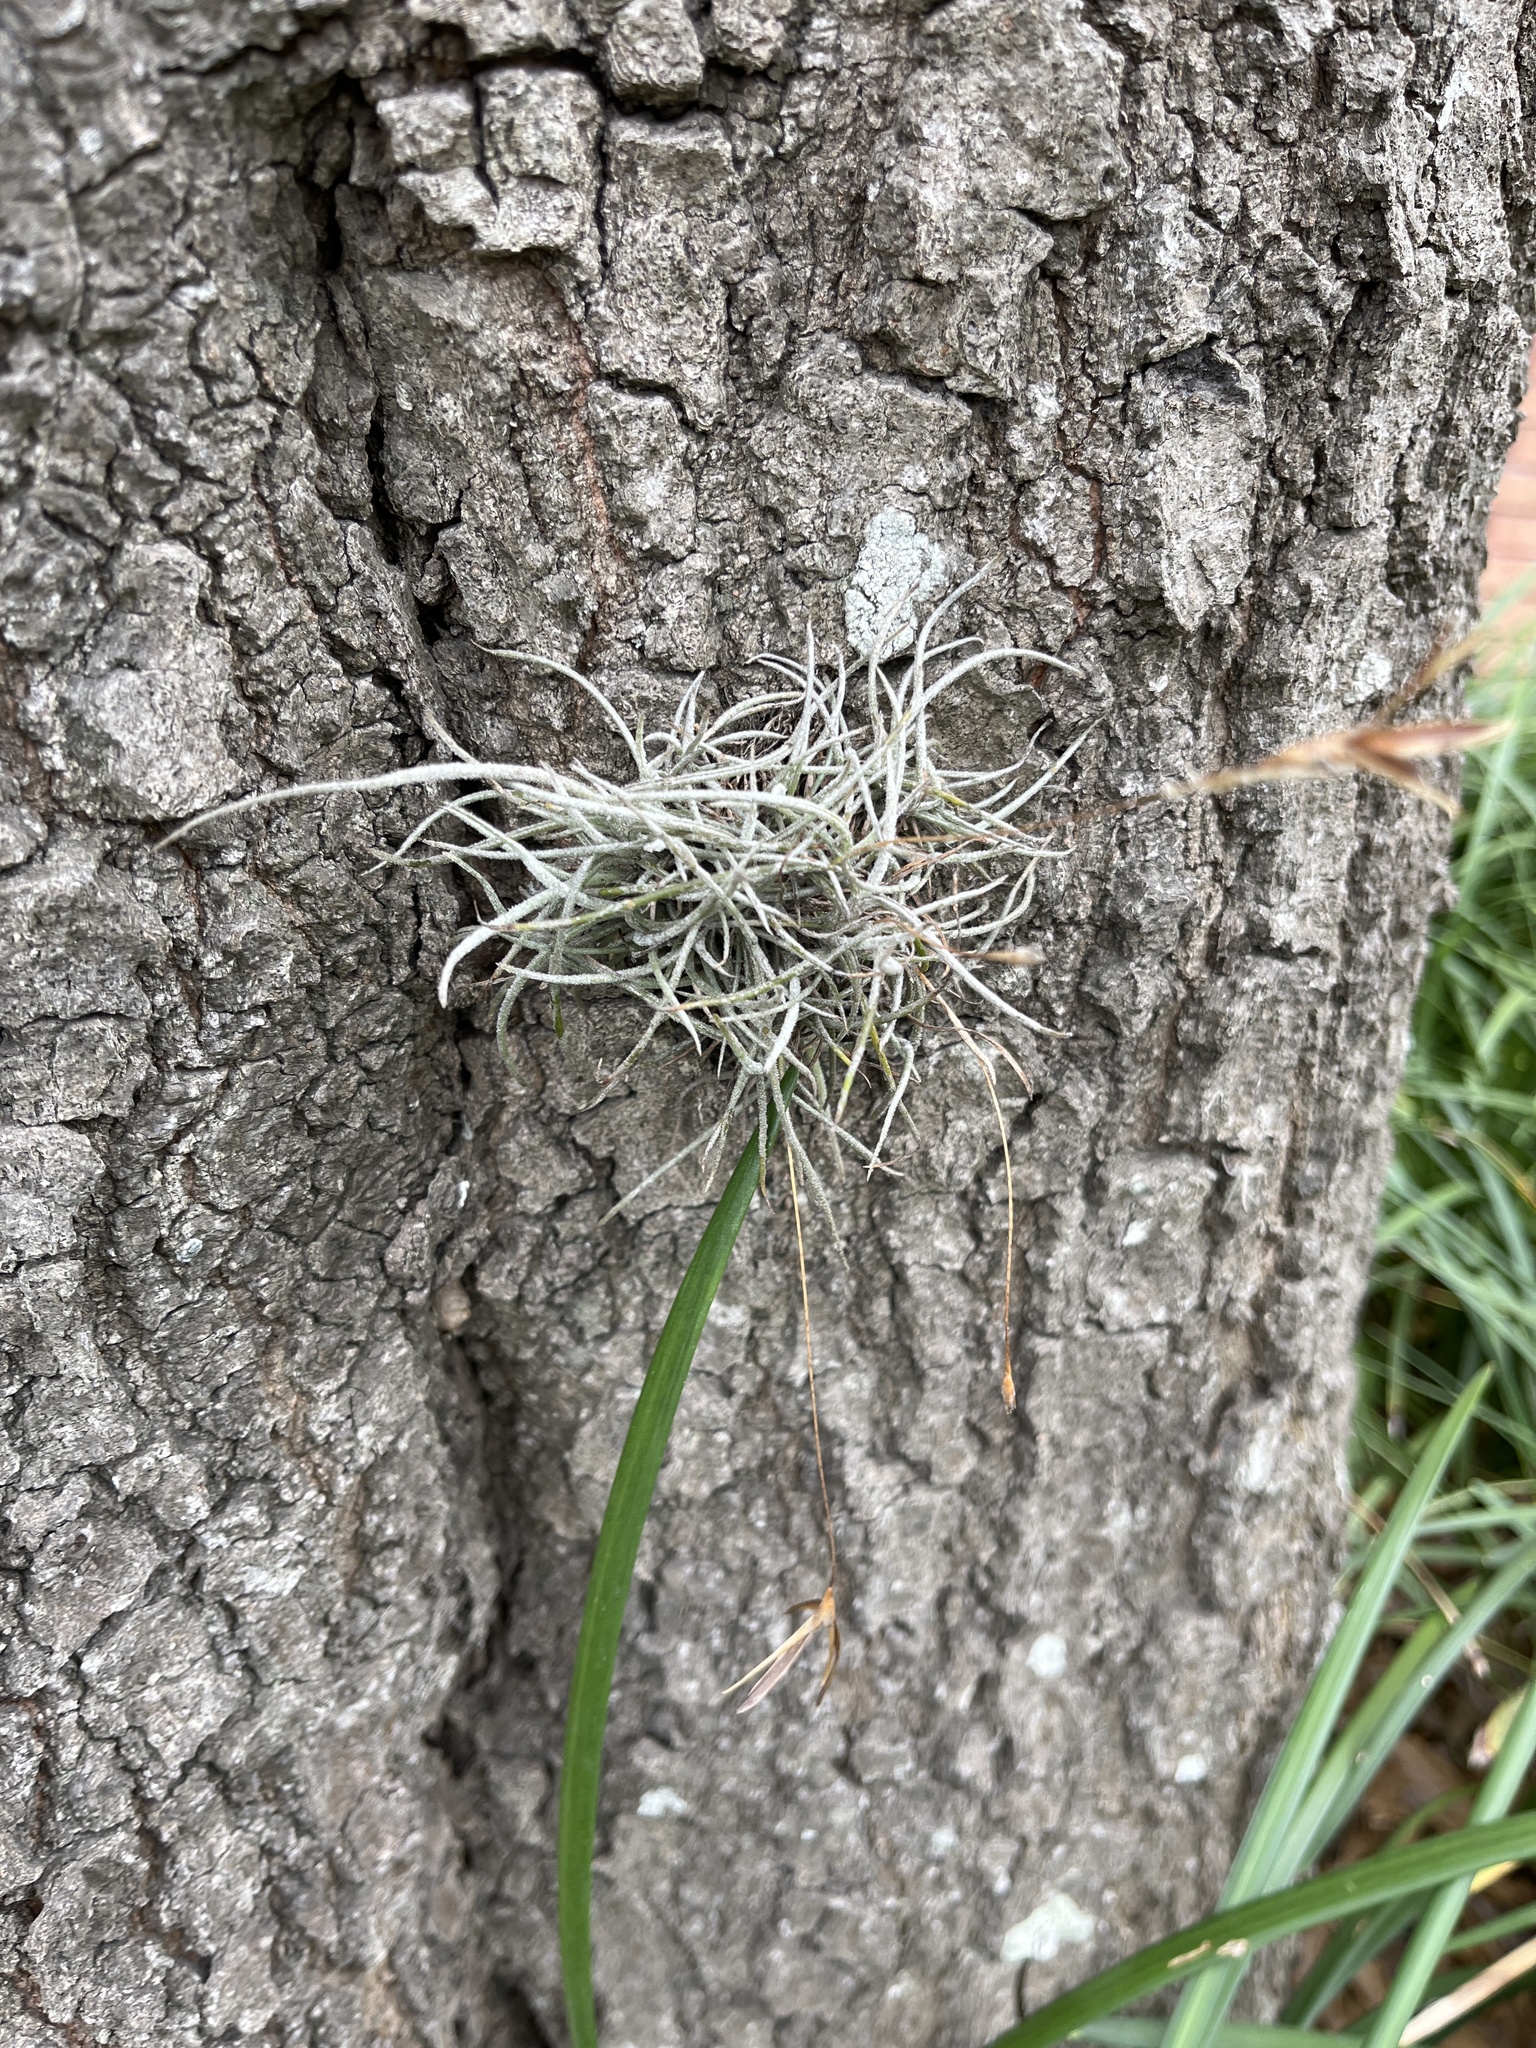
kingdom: Plantae
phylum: Tracheophyta
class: Liliopsida
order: Poales
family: Bromeliaceae
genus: Tillandsia
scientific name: Tillandsia recurvata
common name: Small ballmoss
